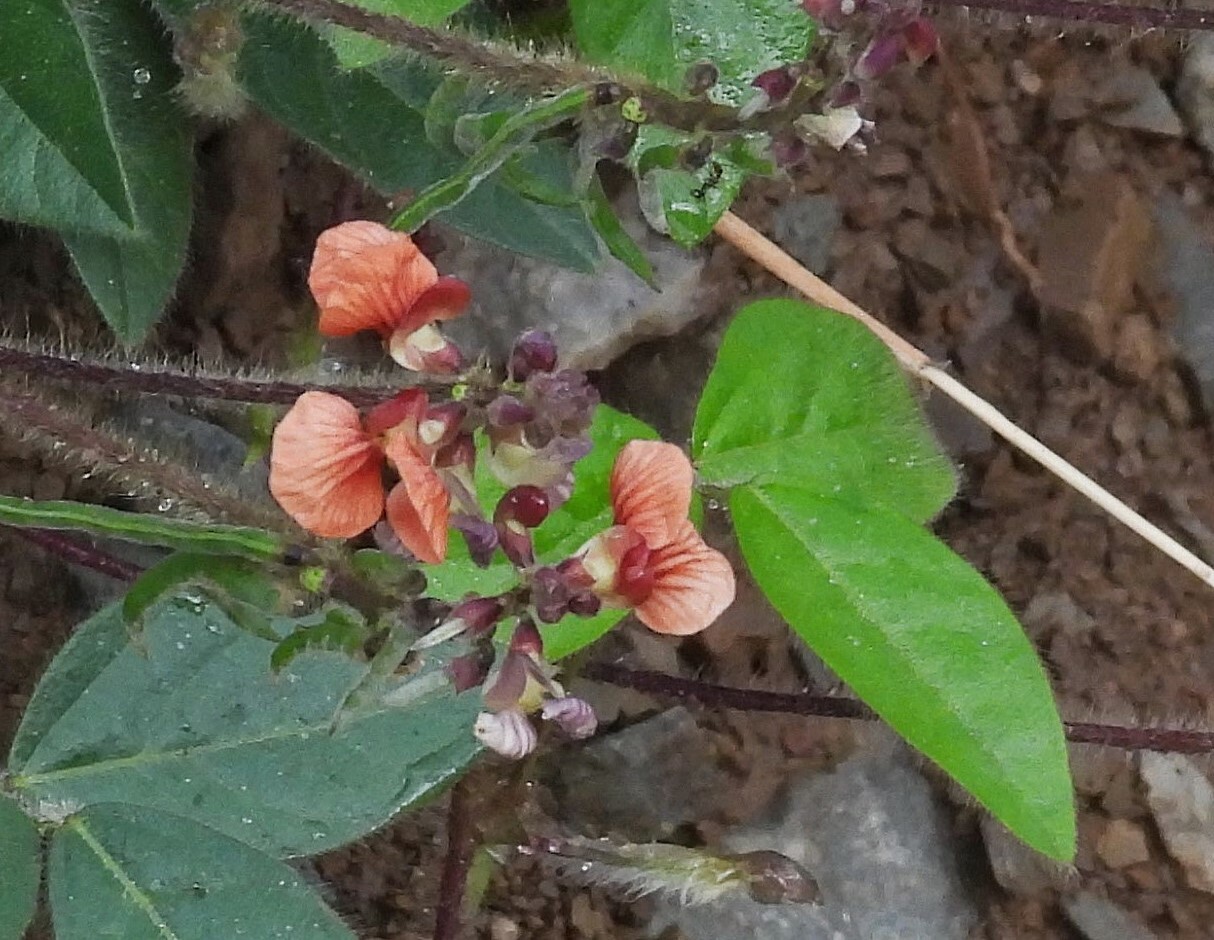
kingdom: Plantae
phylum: Tracheophyta
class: Magnoliopsida
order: Fabales
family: Fabaceae
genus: Macroptilium
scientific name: Macroptilium prostratum
